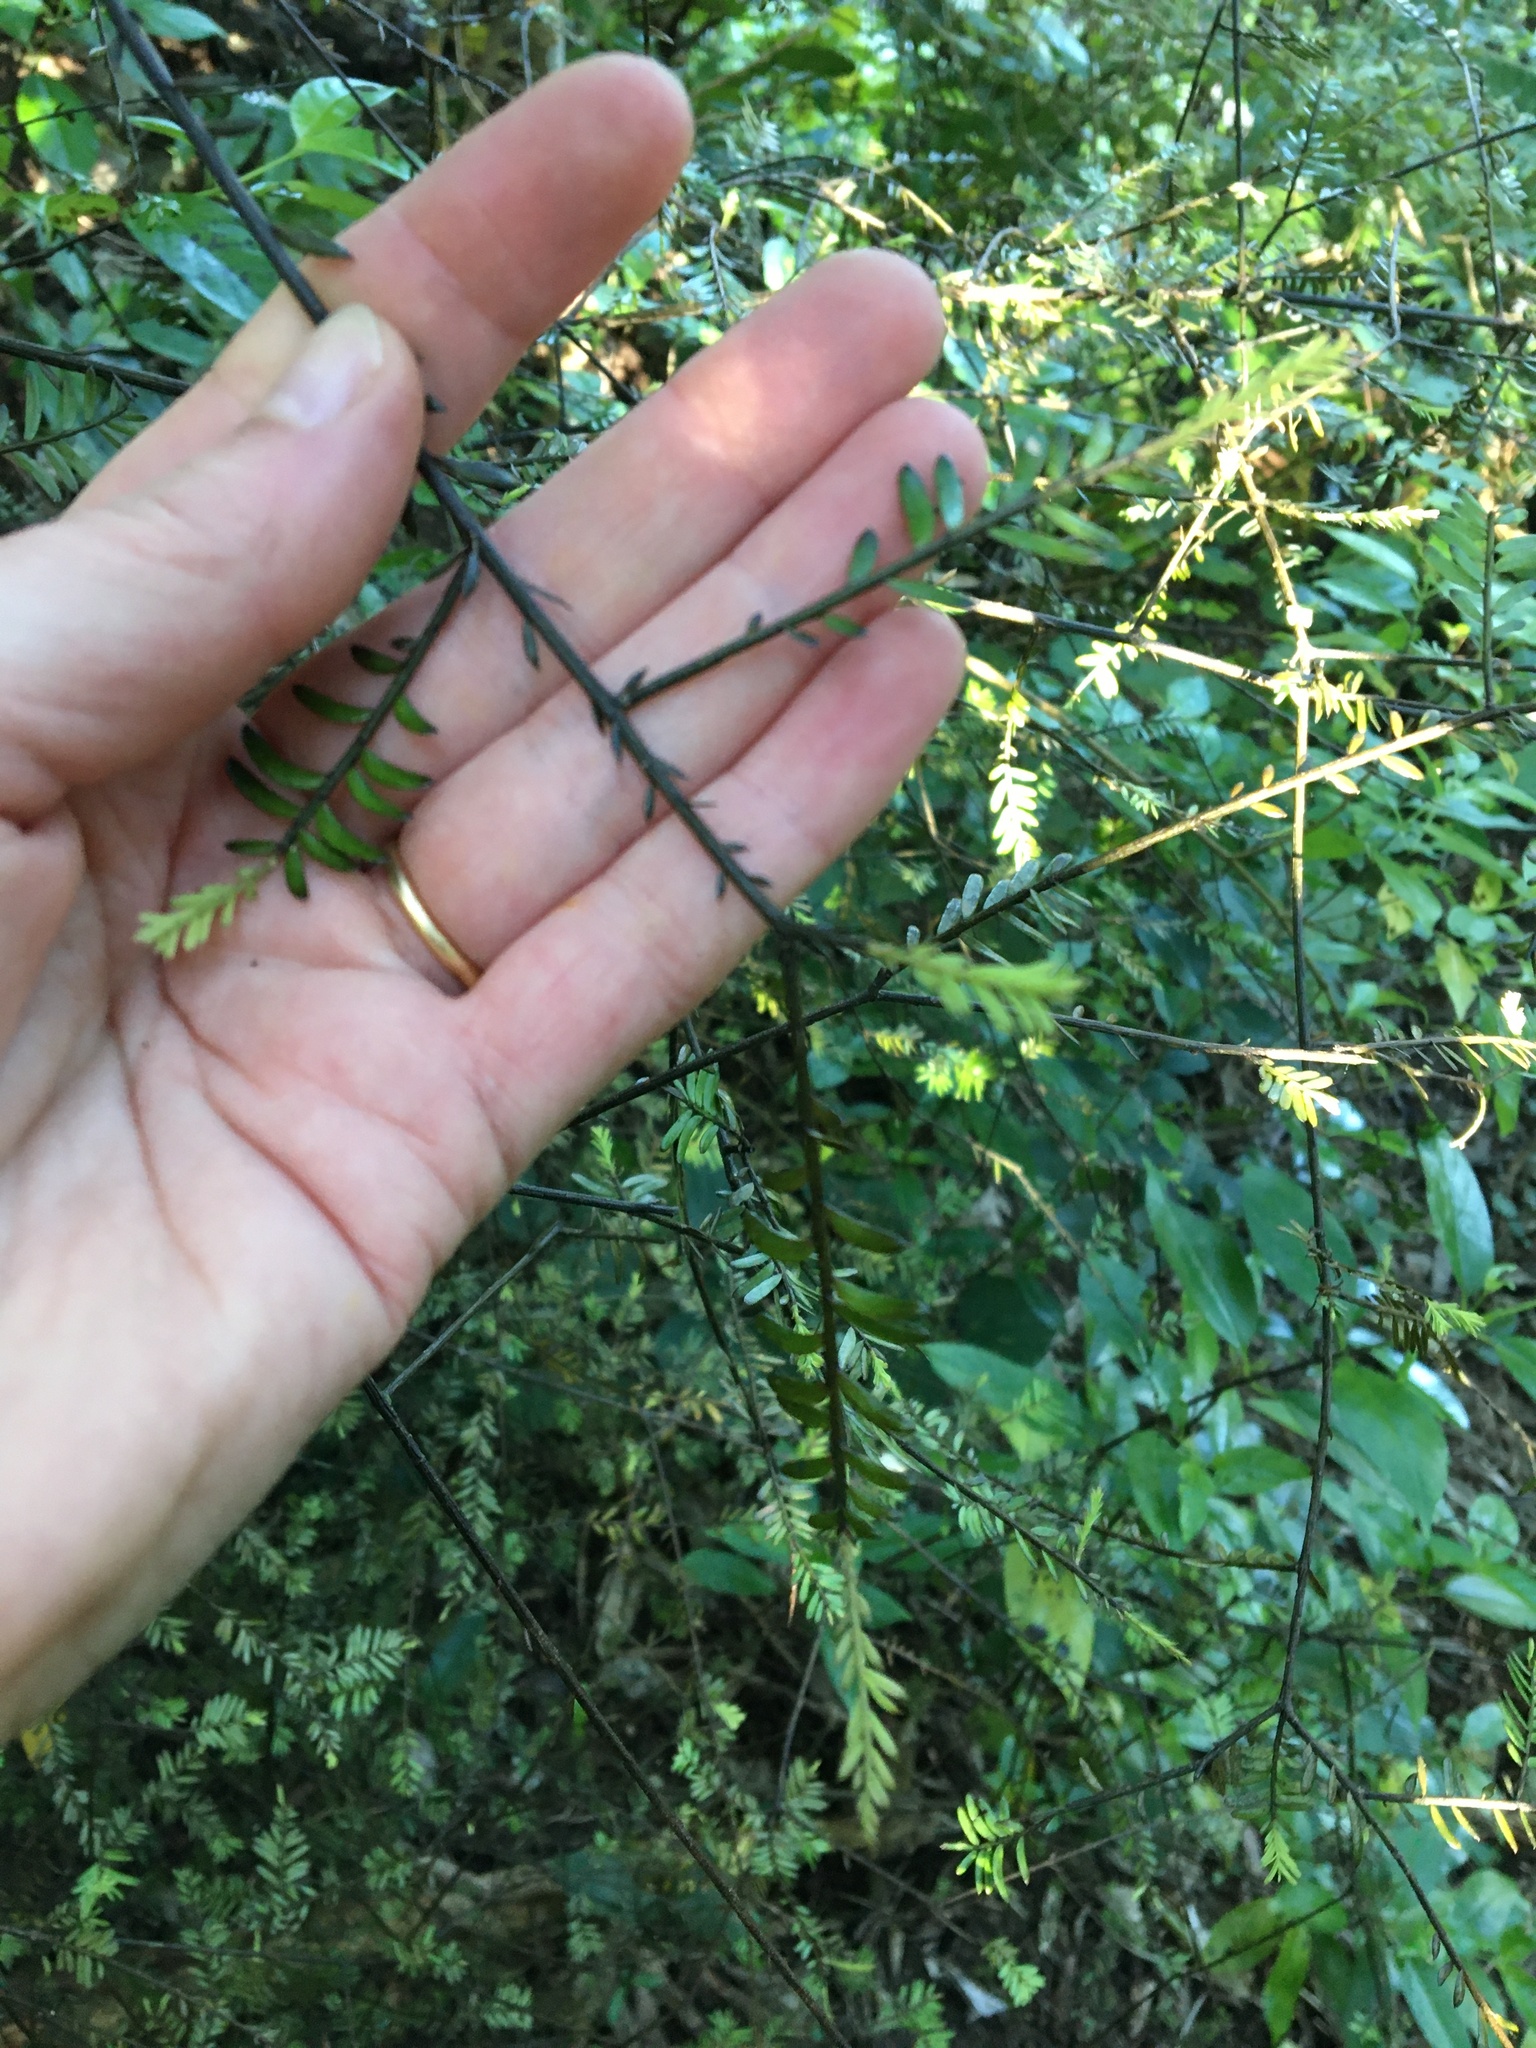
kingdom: Plantae
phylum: Tracheophyta
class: Pinopsida
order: Pinales
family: Podocarpaceae
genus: Prumnopitys
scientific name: Prumnopitys taxifolia
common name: Matai
